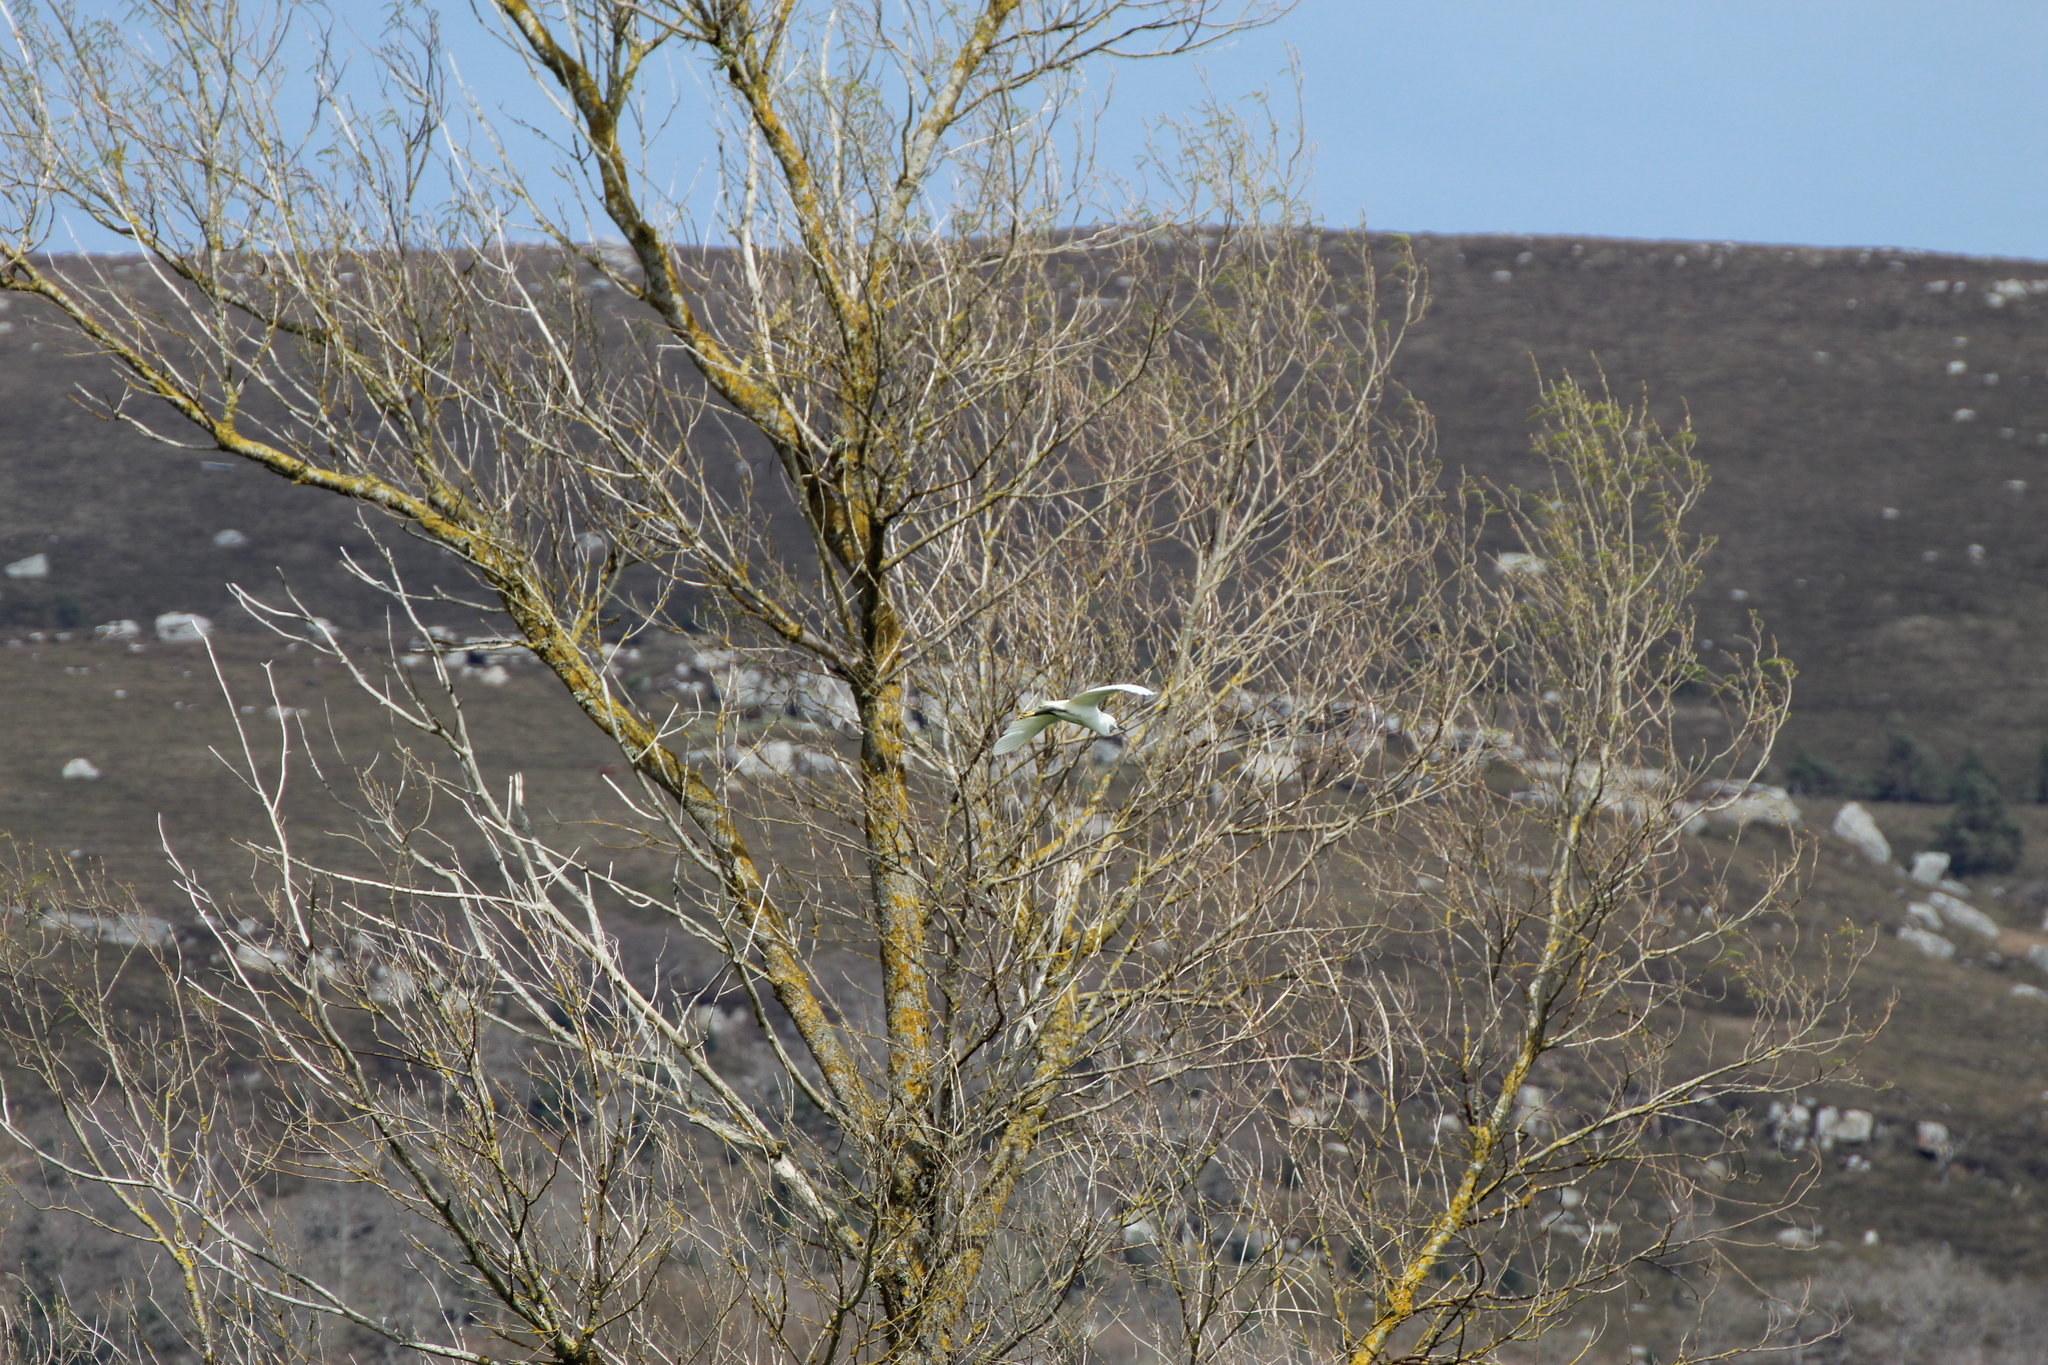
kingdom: Animalia
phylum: Chordata
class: Aves
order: Pelecaniformes
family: Ardeidae
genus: Egretta
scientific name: Egretta garzetta
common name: Little egret
